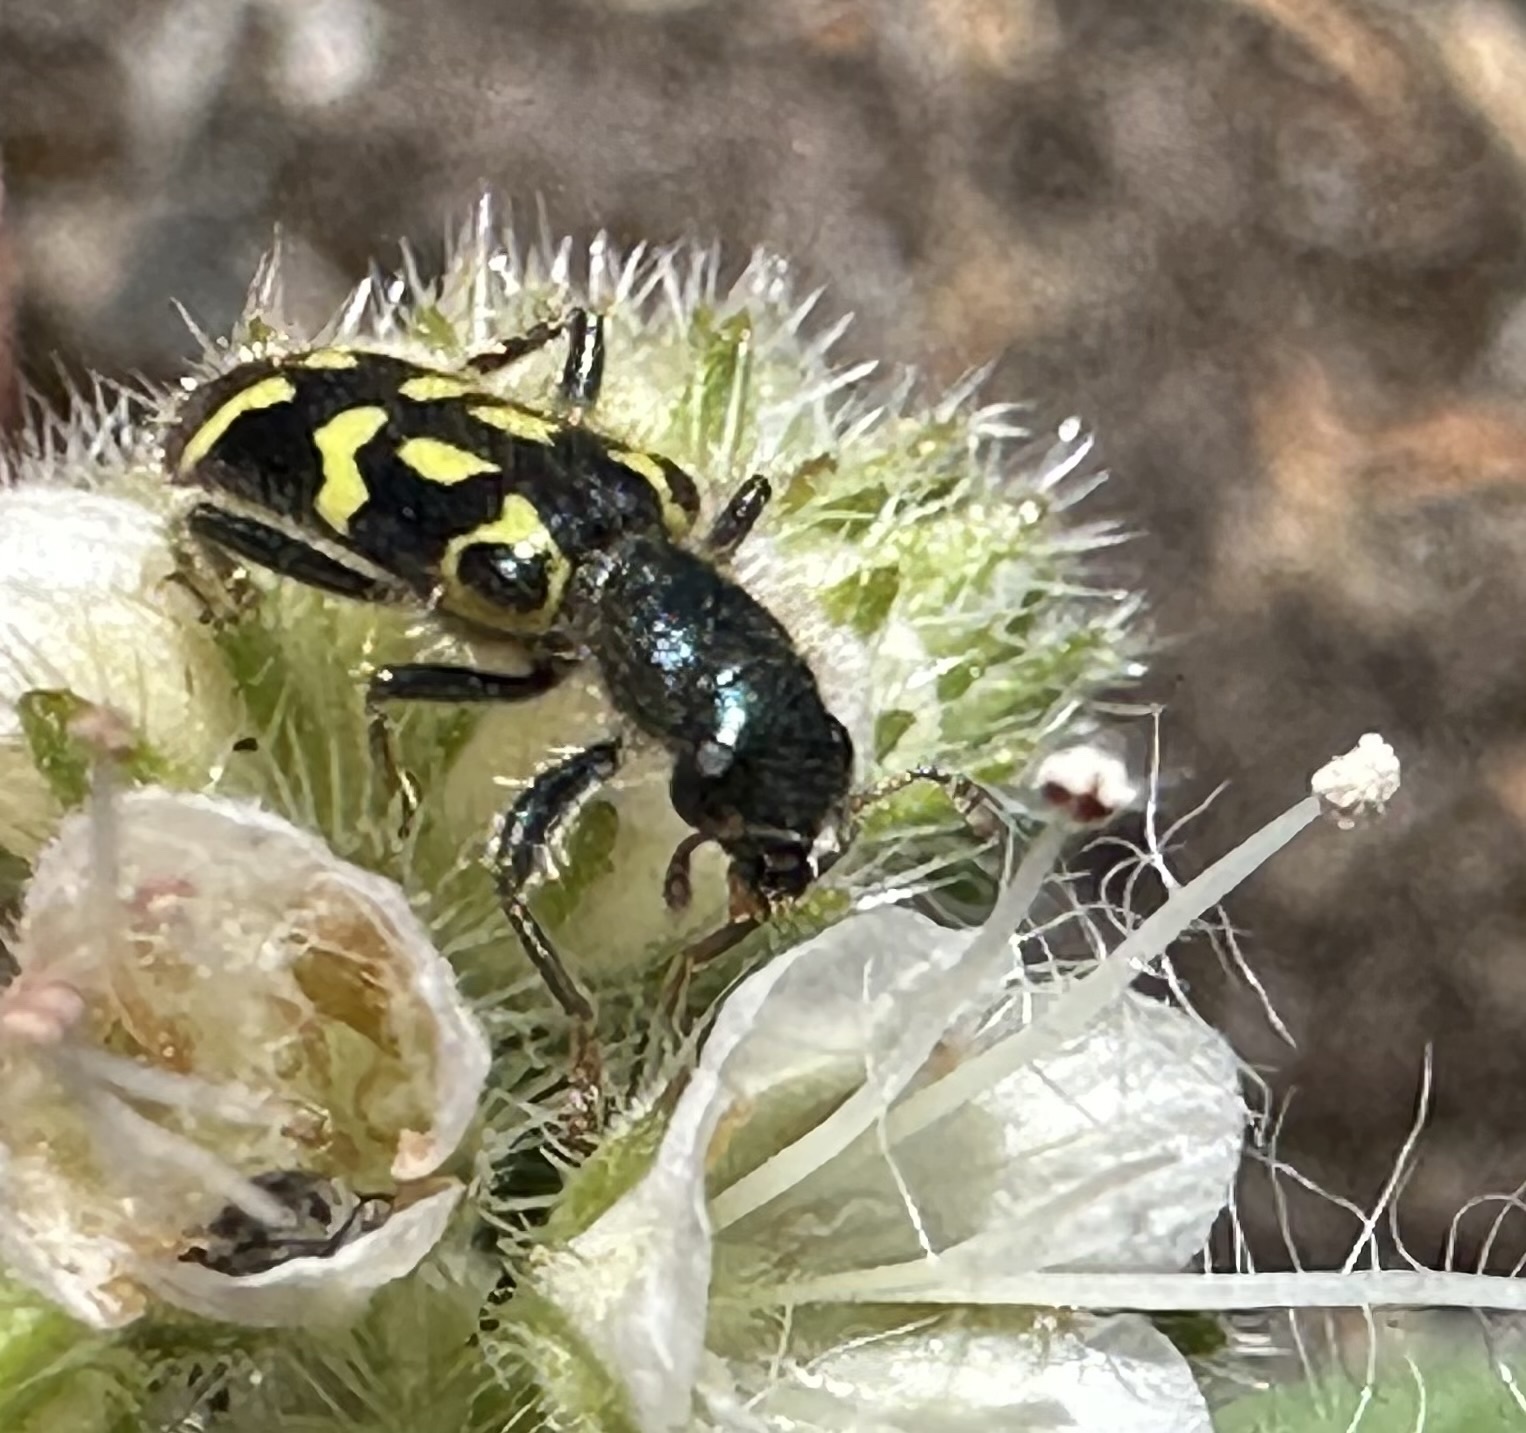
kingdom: Animalia
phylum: Arthropoda
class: Insecta
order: Coleoptera
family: Cleridae
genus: Trichodes
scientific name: Trichodes ornatus
